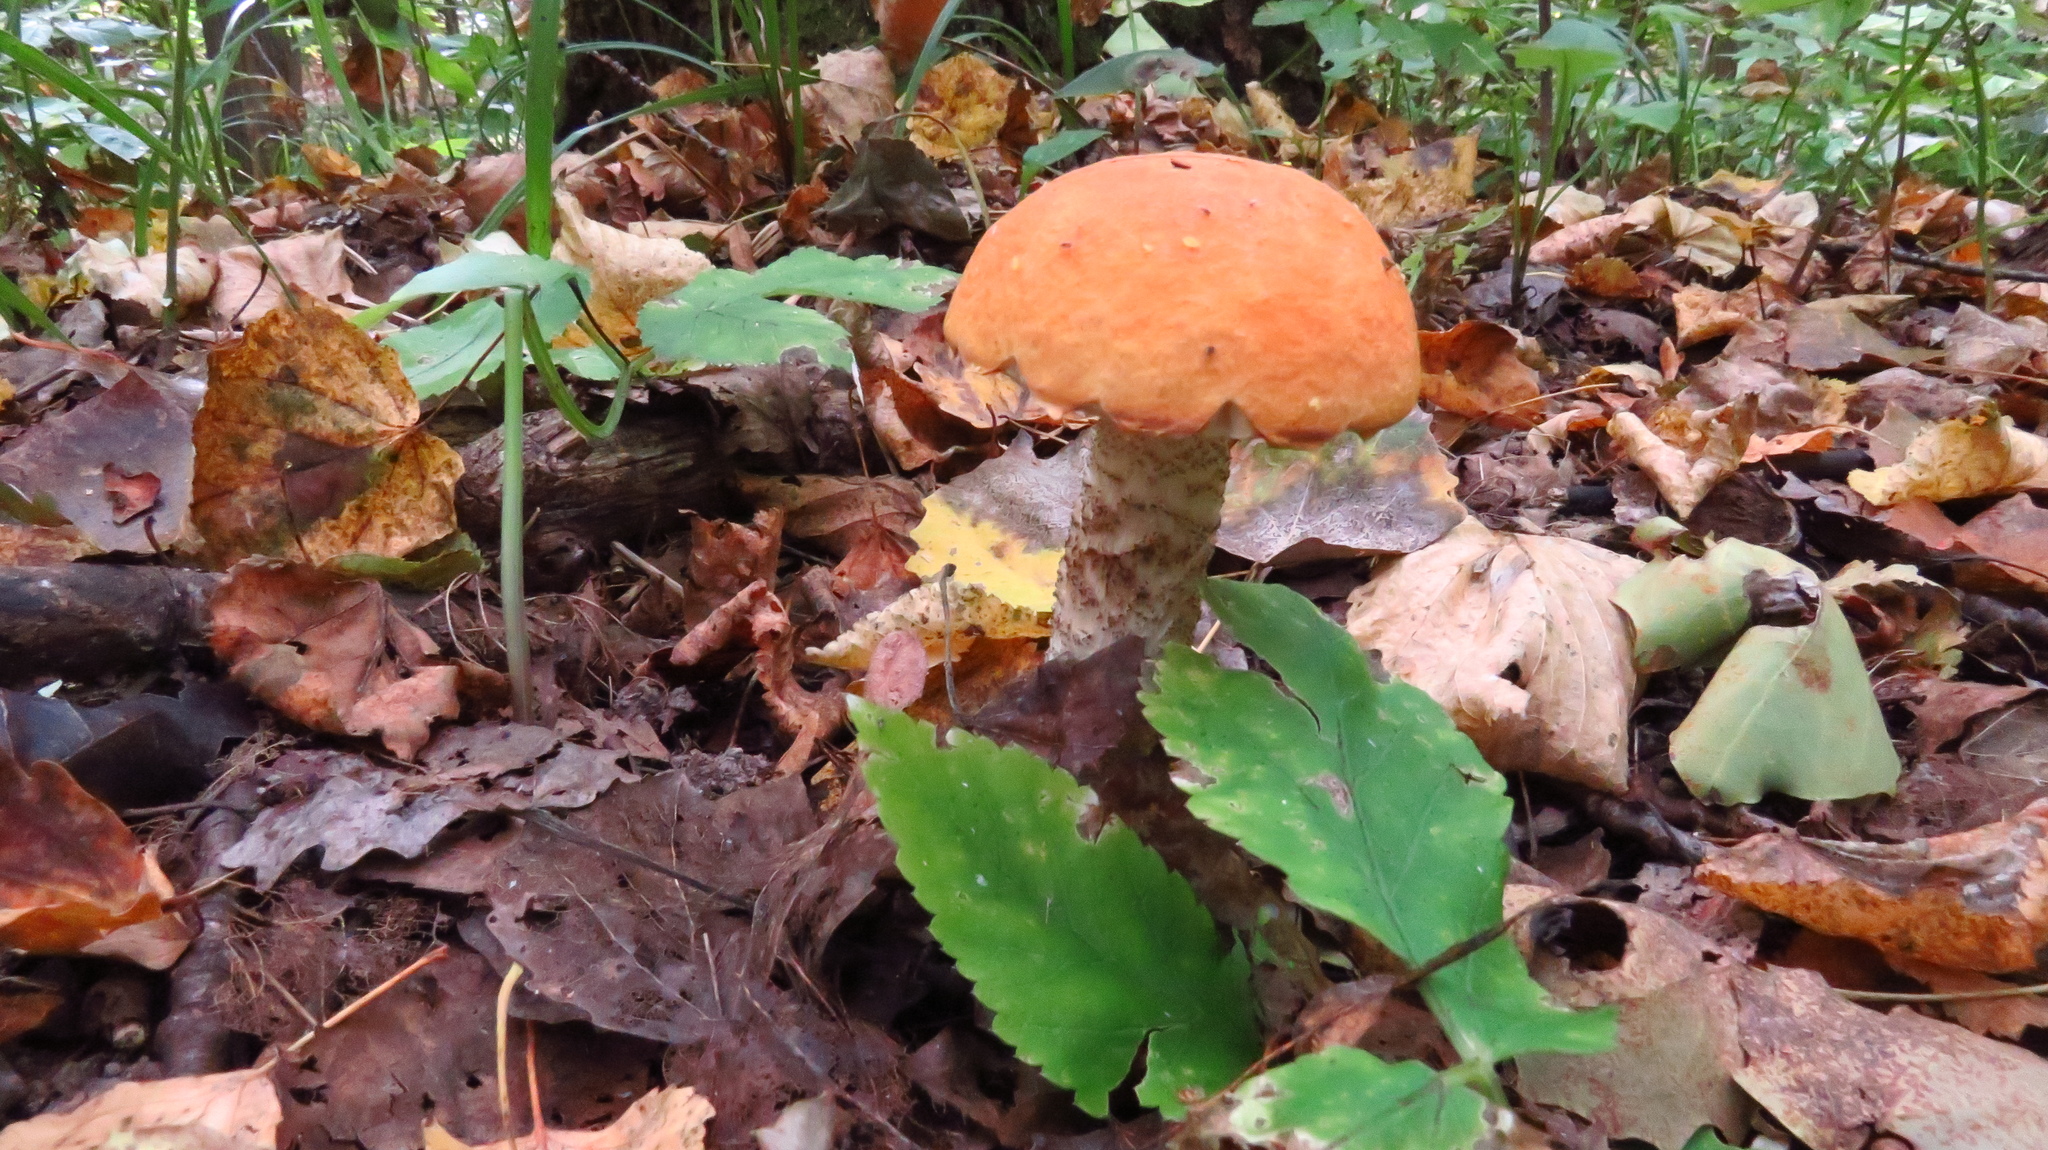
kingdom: Fungi
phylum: Basidiomycota
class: Agaricomycetes
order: Boletales
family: Boletaceae
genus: Leccinum
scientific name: Leccinum aurantiacum
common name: Orange bolete
